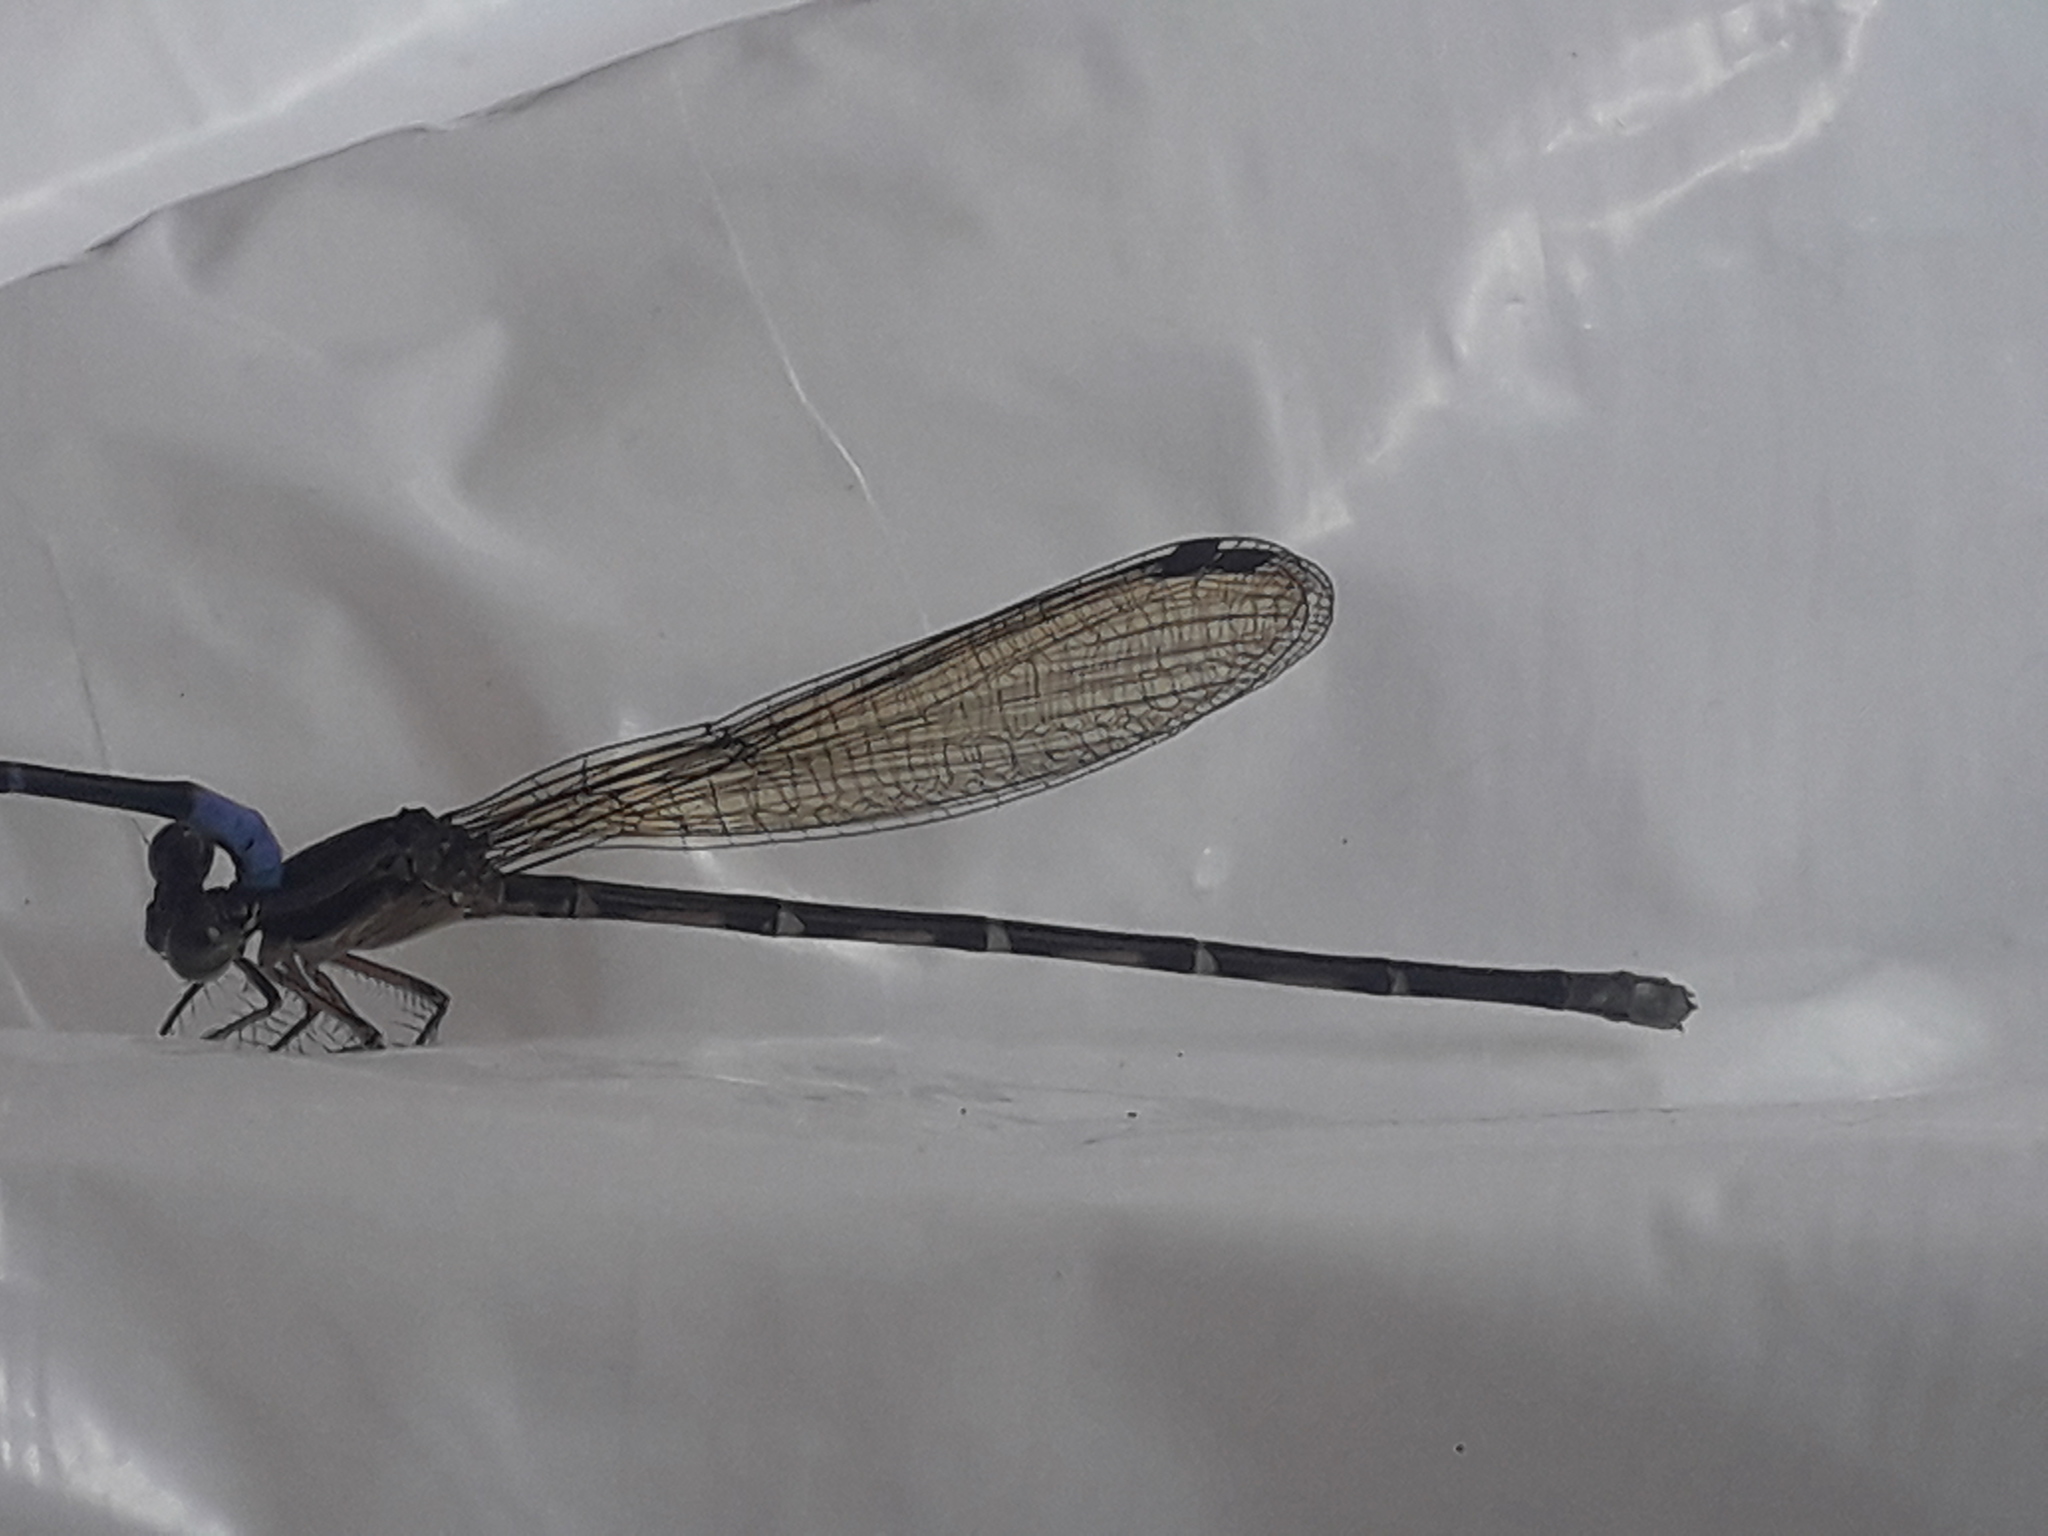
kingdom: Animalia
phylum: Arthropoda
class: Insecta
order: Odonata
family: Coenagrionidae
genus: Argia
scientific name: Argia pulla
